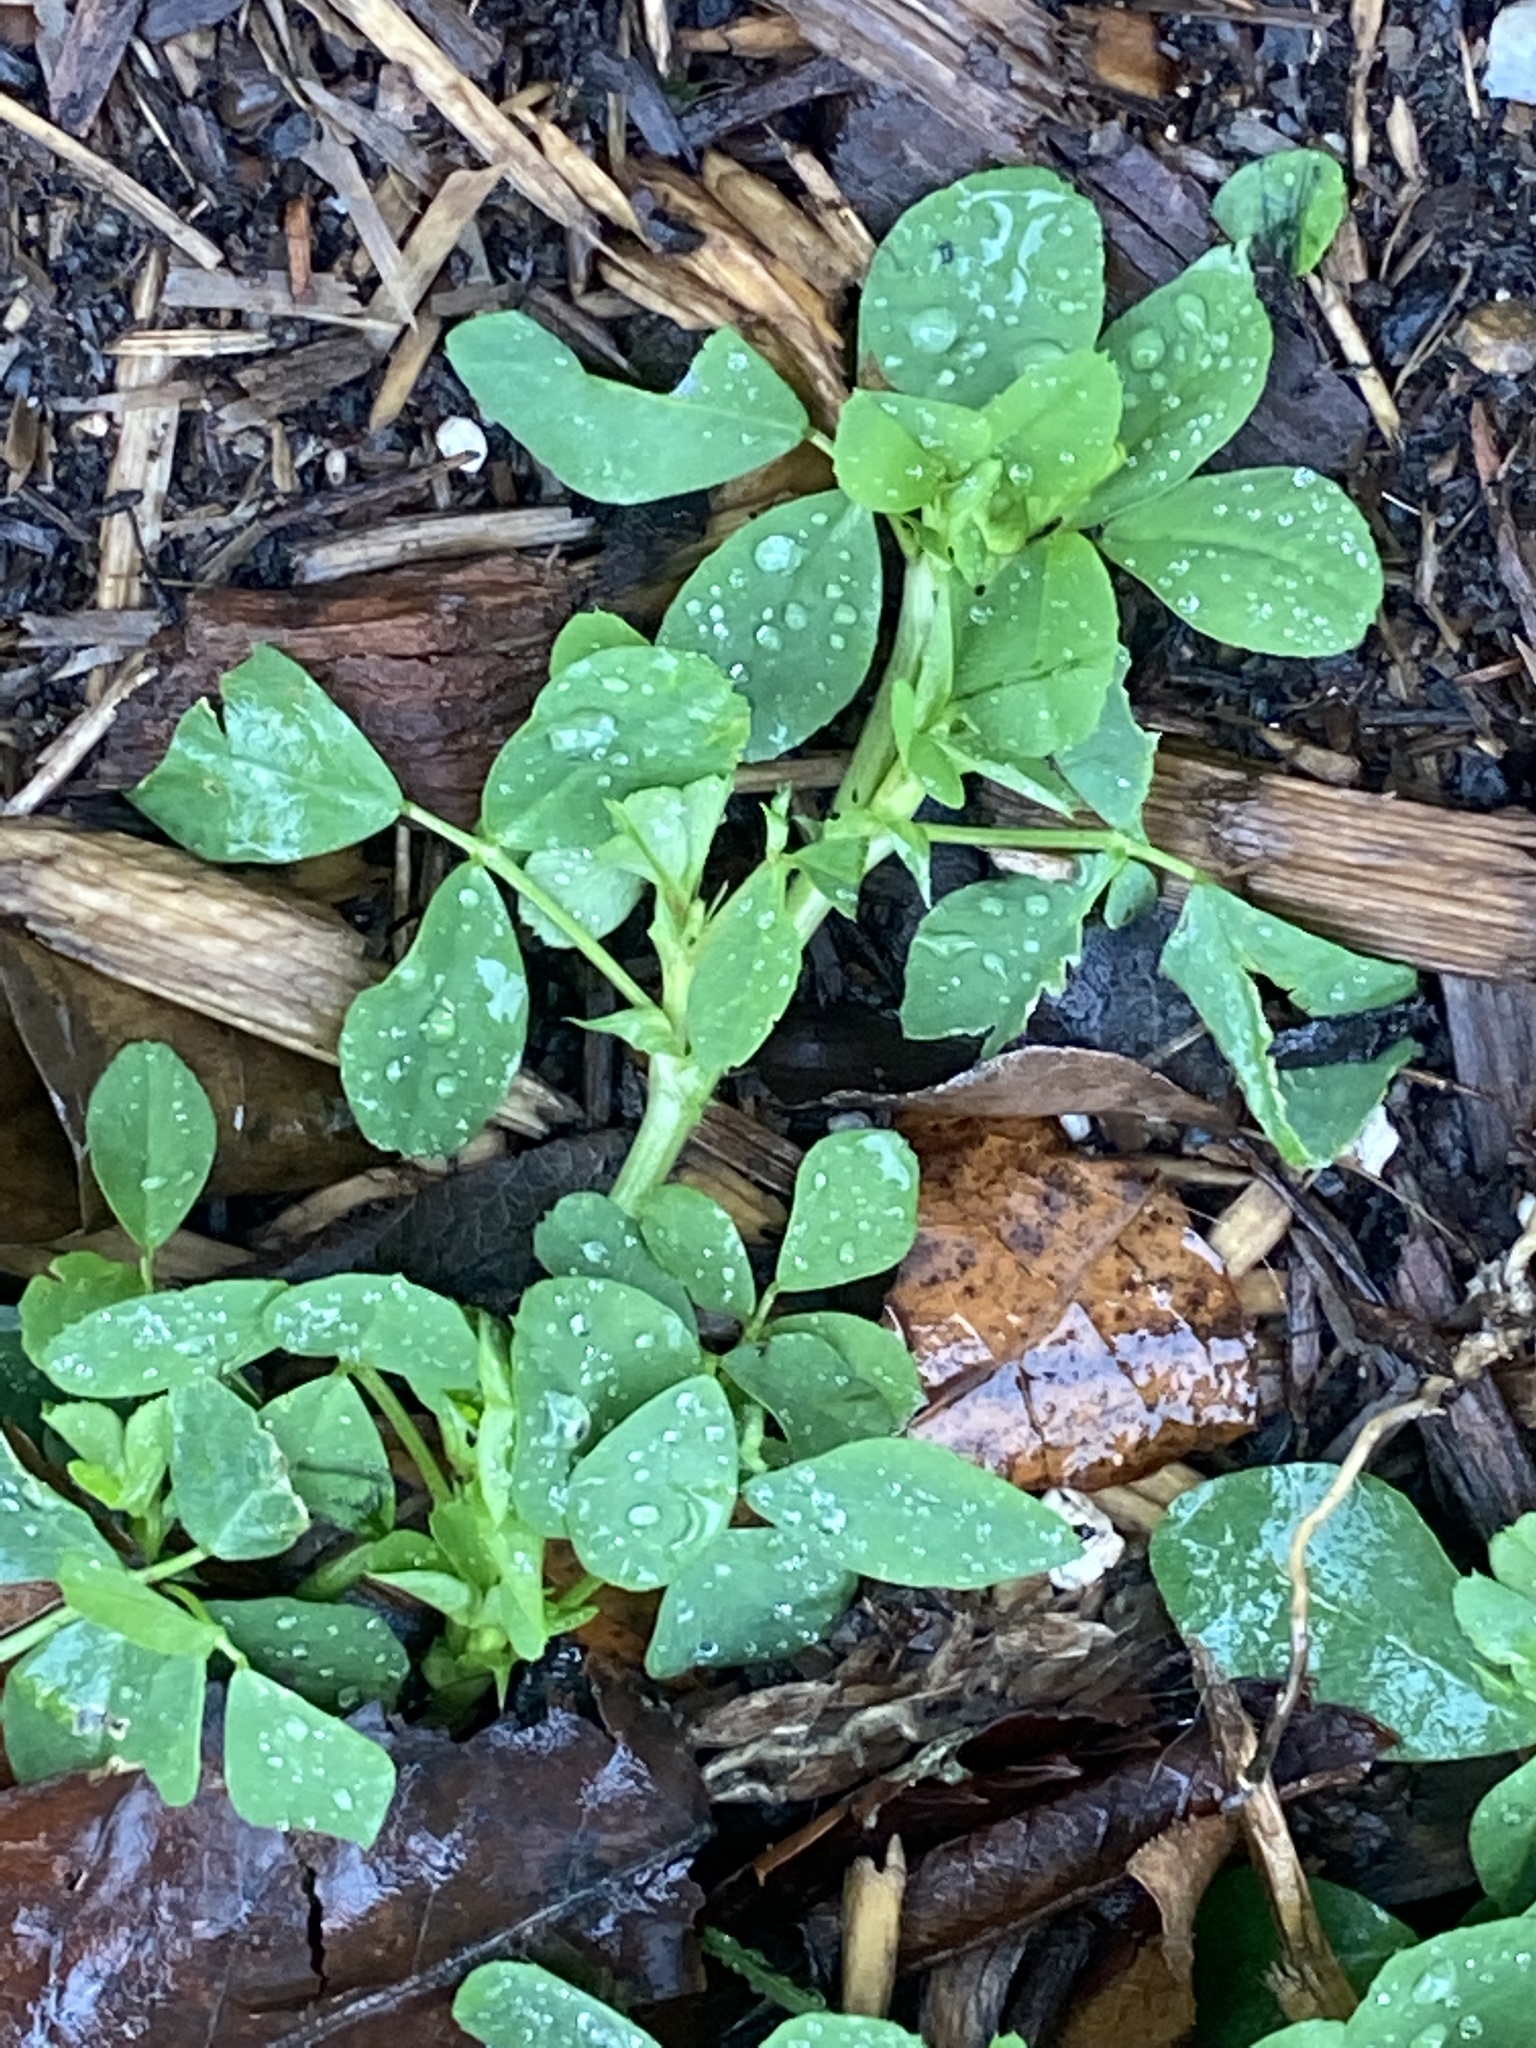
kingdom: Plantae
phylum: Tracheophyta
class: Magnoliopsida
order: Fabales
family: Fabaceae
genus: Medicago
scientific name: Medicago lupulina
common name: Black medick
